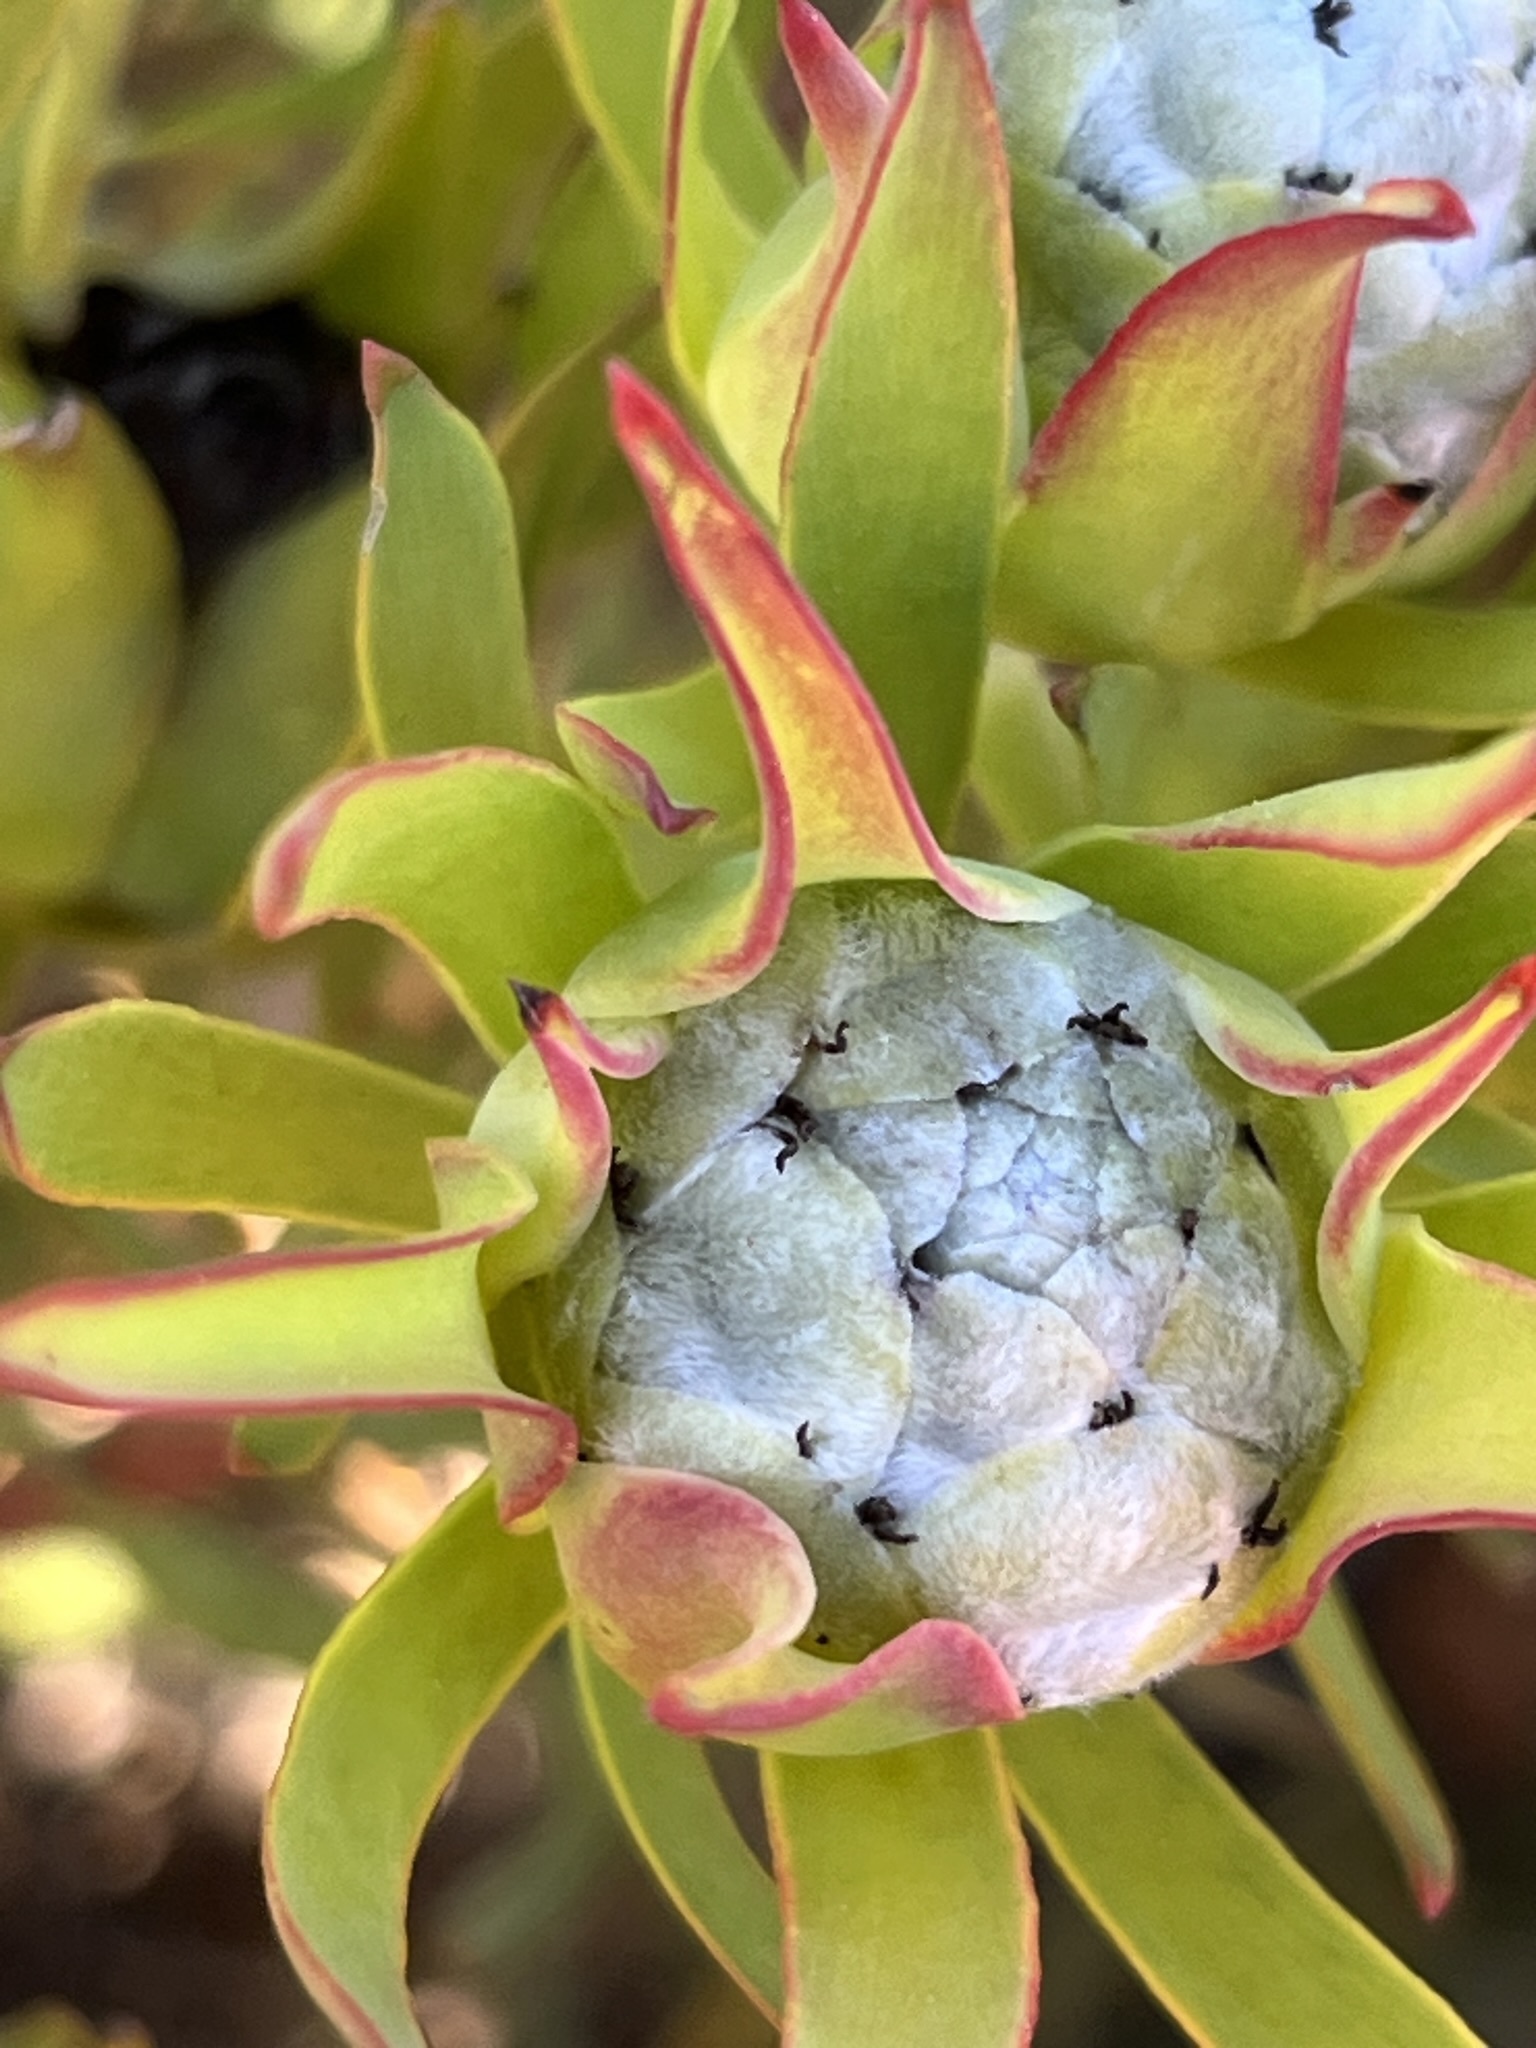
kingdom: Plantae
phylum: Tracheophyta
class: Magnoliopsida
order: Proteales
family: Proteaceae
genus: Leucadendron
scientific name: Leucadendron salignum
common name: Common sunshine conebush
